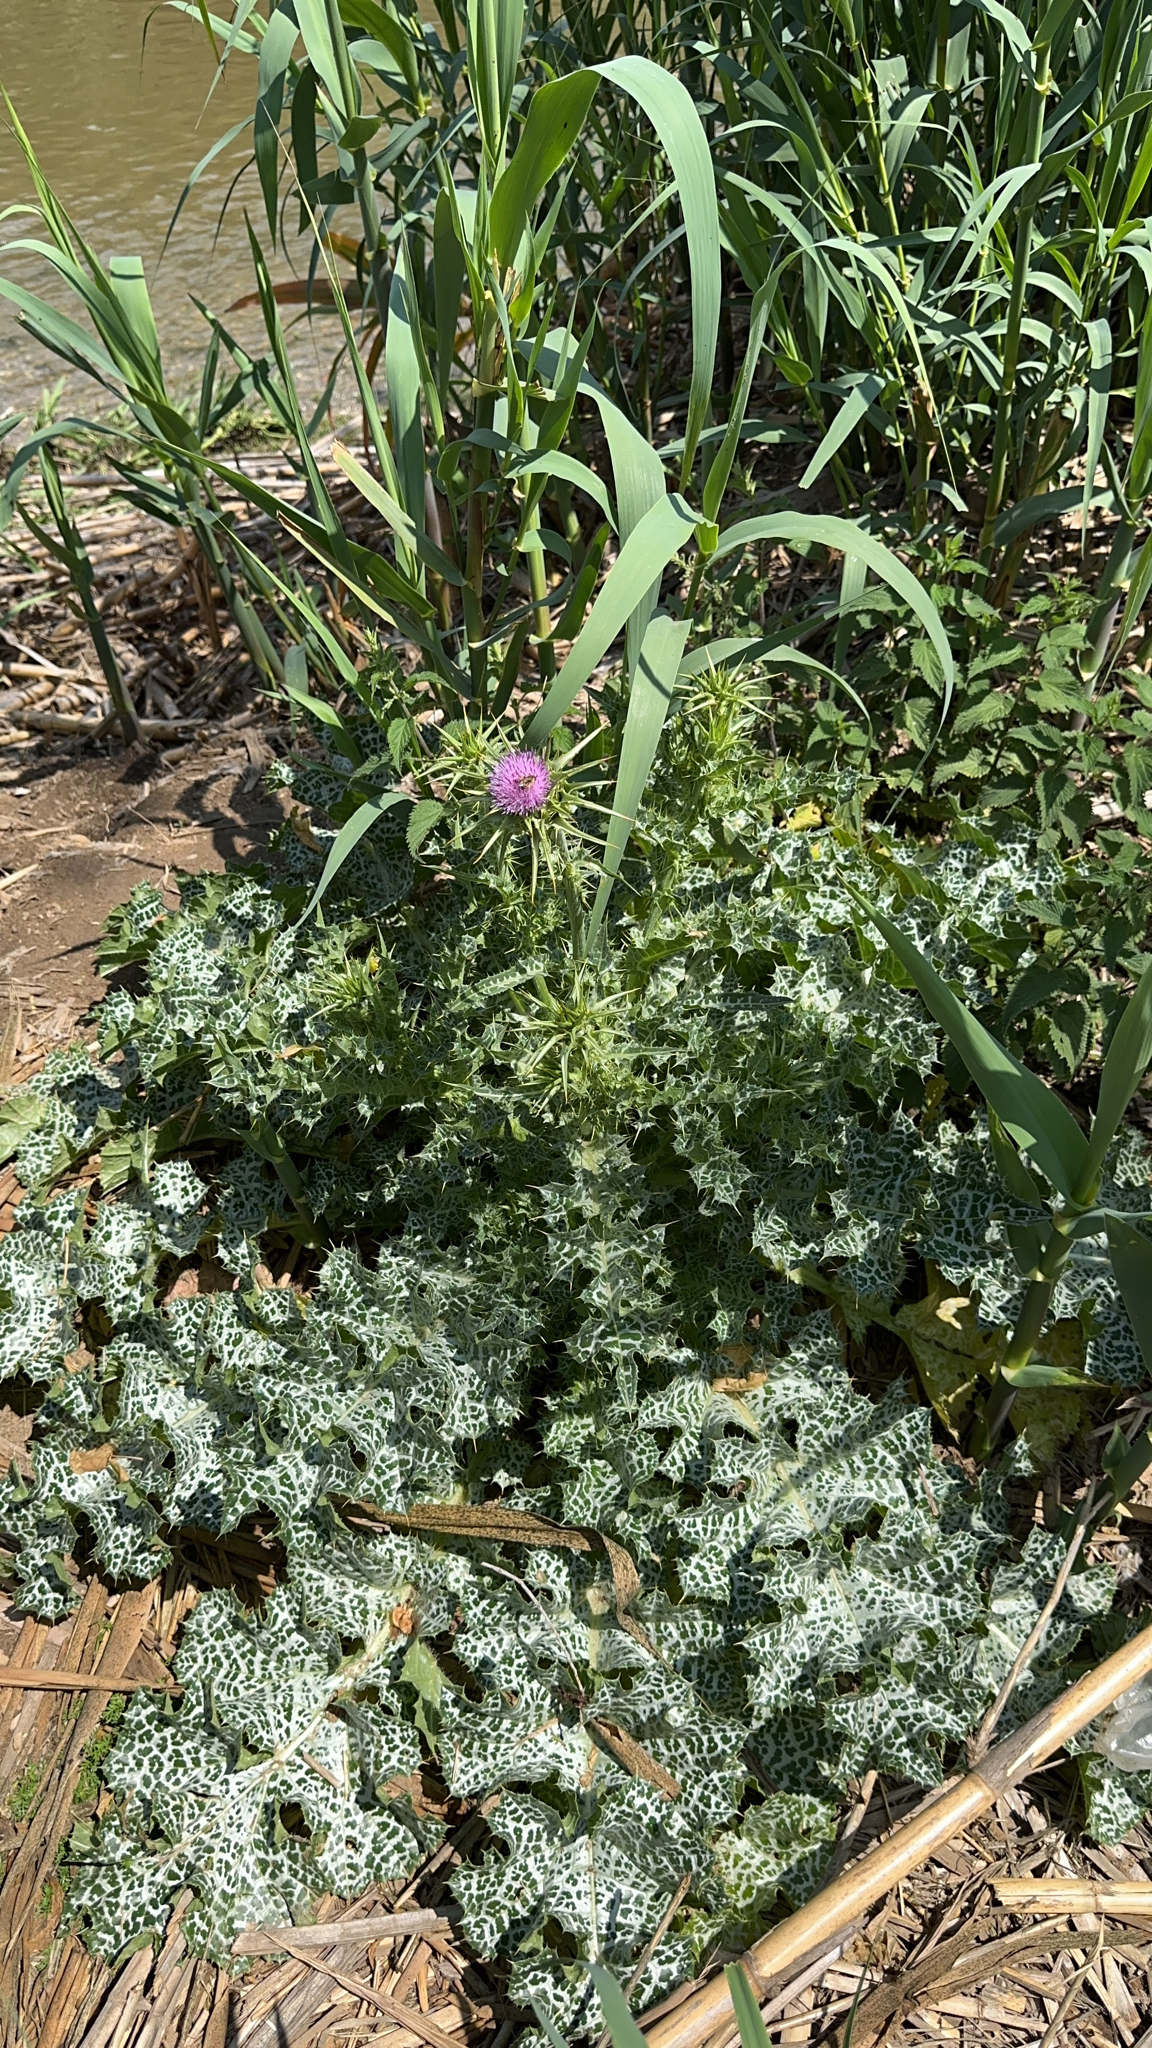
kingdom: Plantae
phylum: Tracheophyta
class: Magnoliopsida
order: Asterales
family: Asteraceae
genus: Silybum
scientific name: Silybum marianum
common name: Milk thistle
